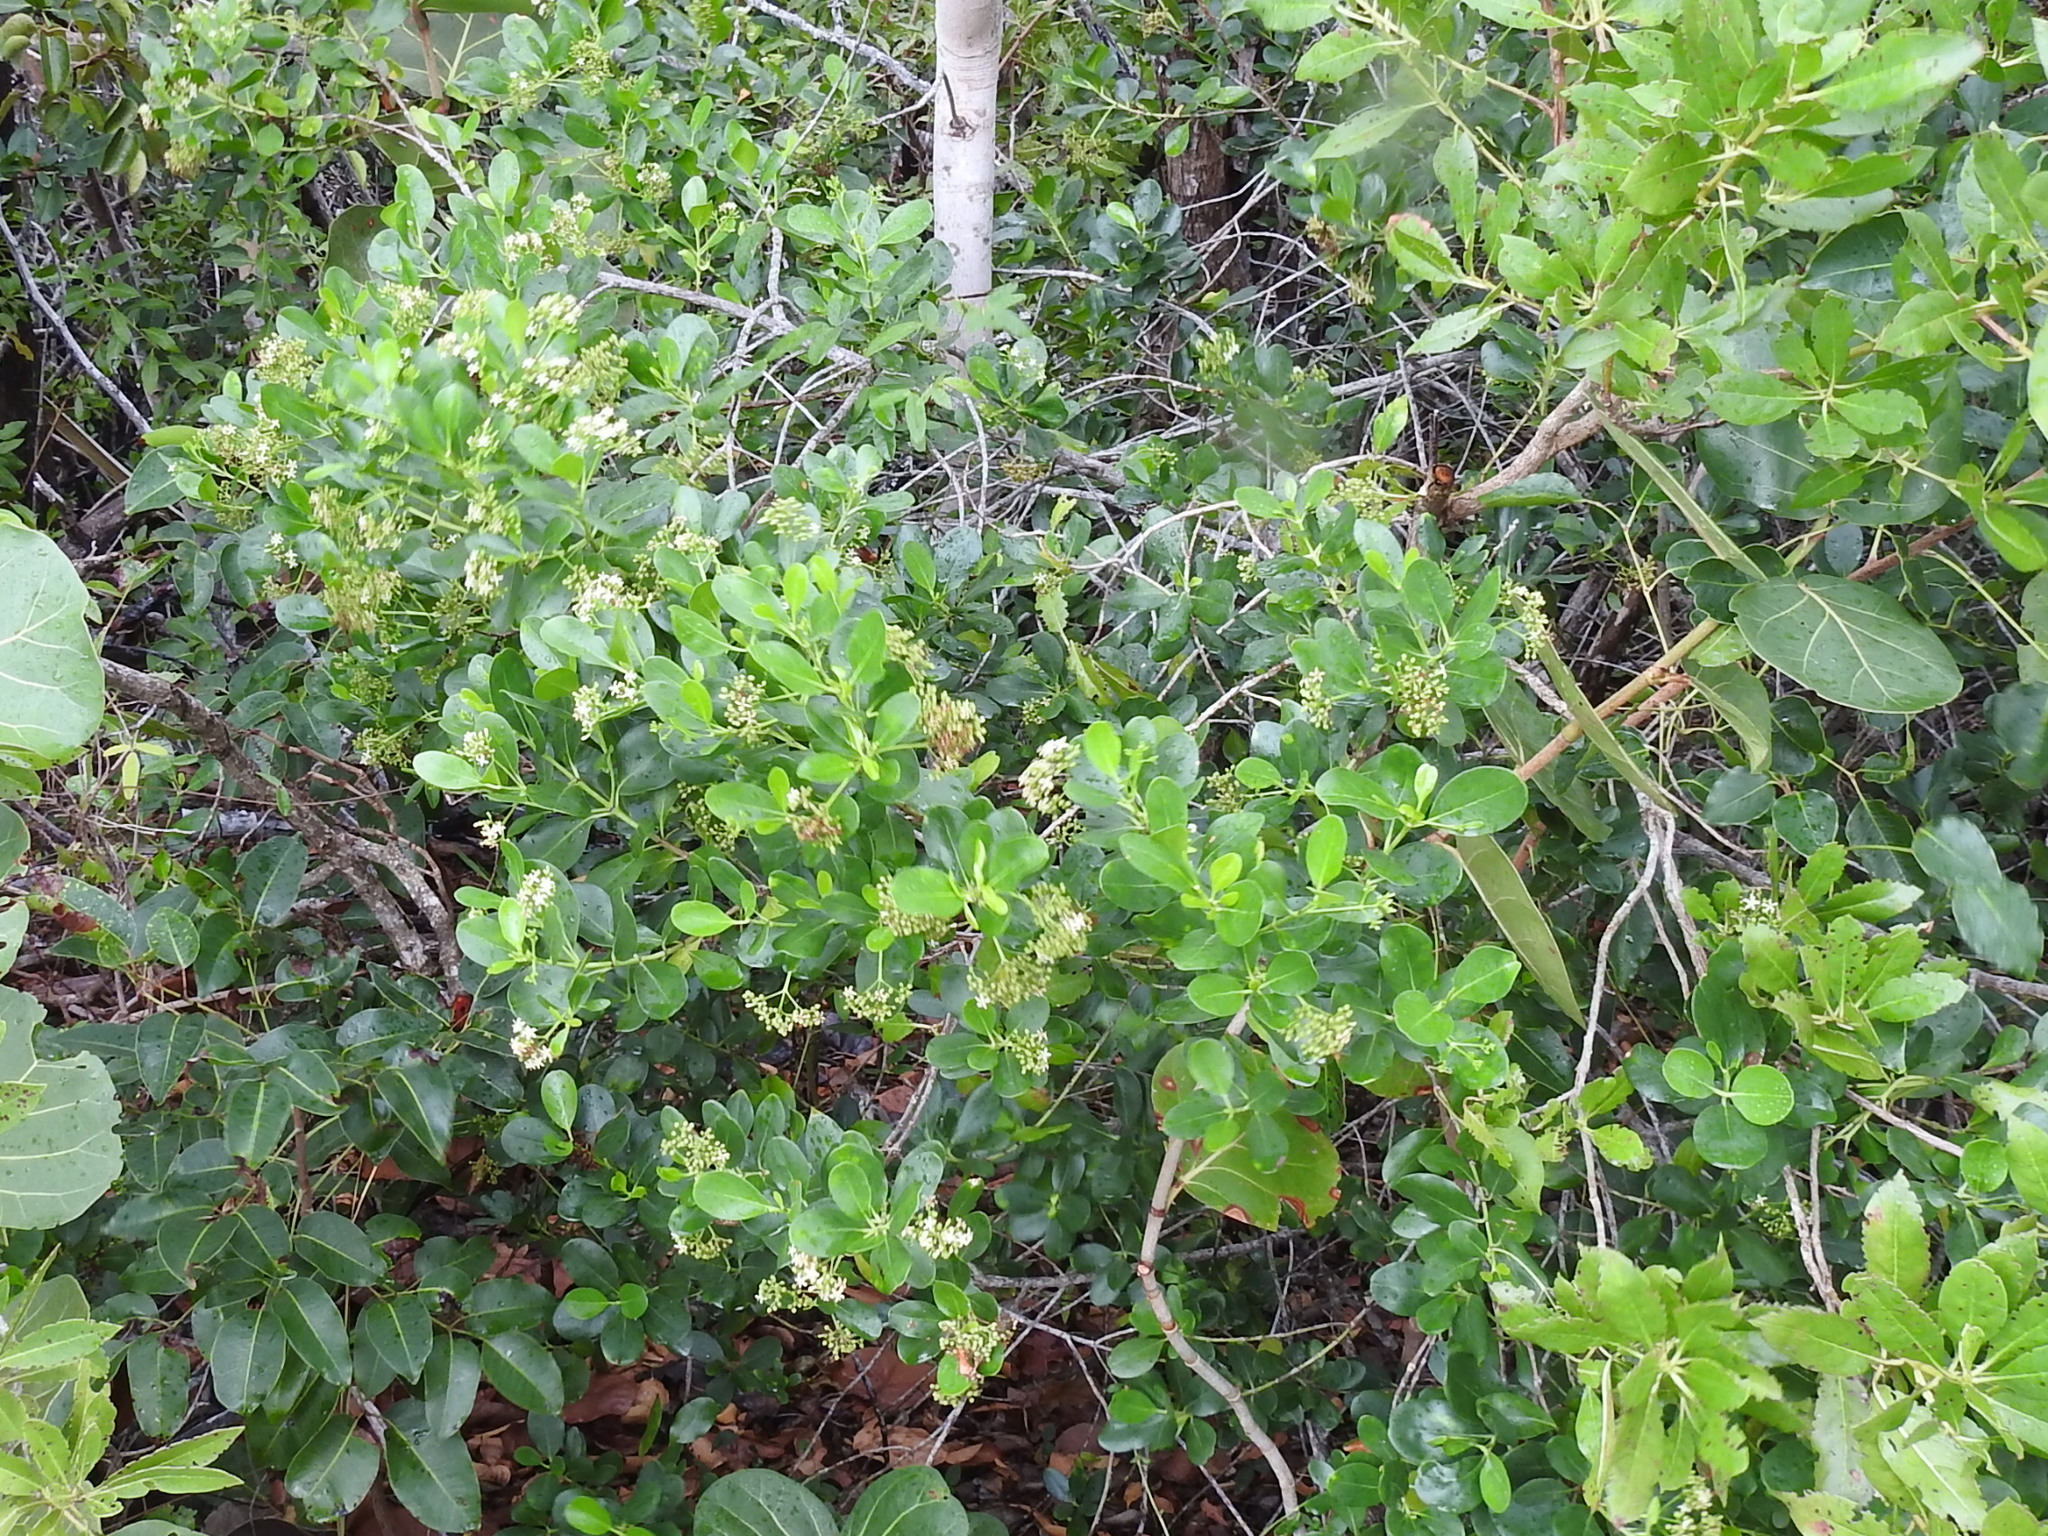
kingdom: Plantae
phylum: Tracheophyta
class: Magnoliopsida
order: Gentianales
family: Rubiaceae
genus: Erithalis
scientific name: Erithalis fruticosa
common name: Candlewood
